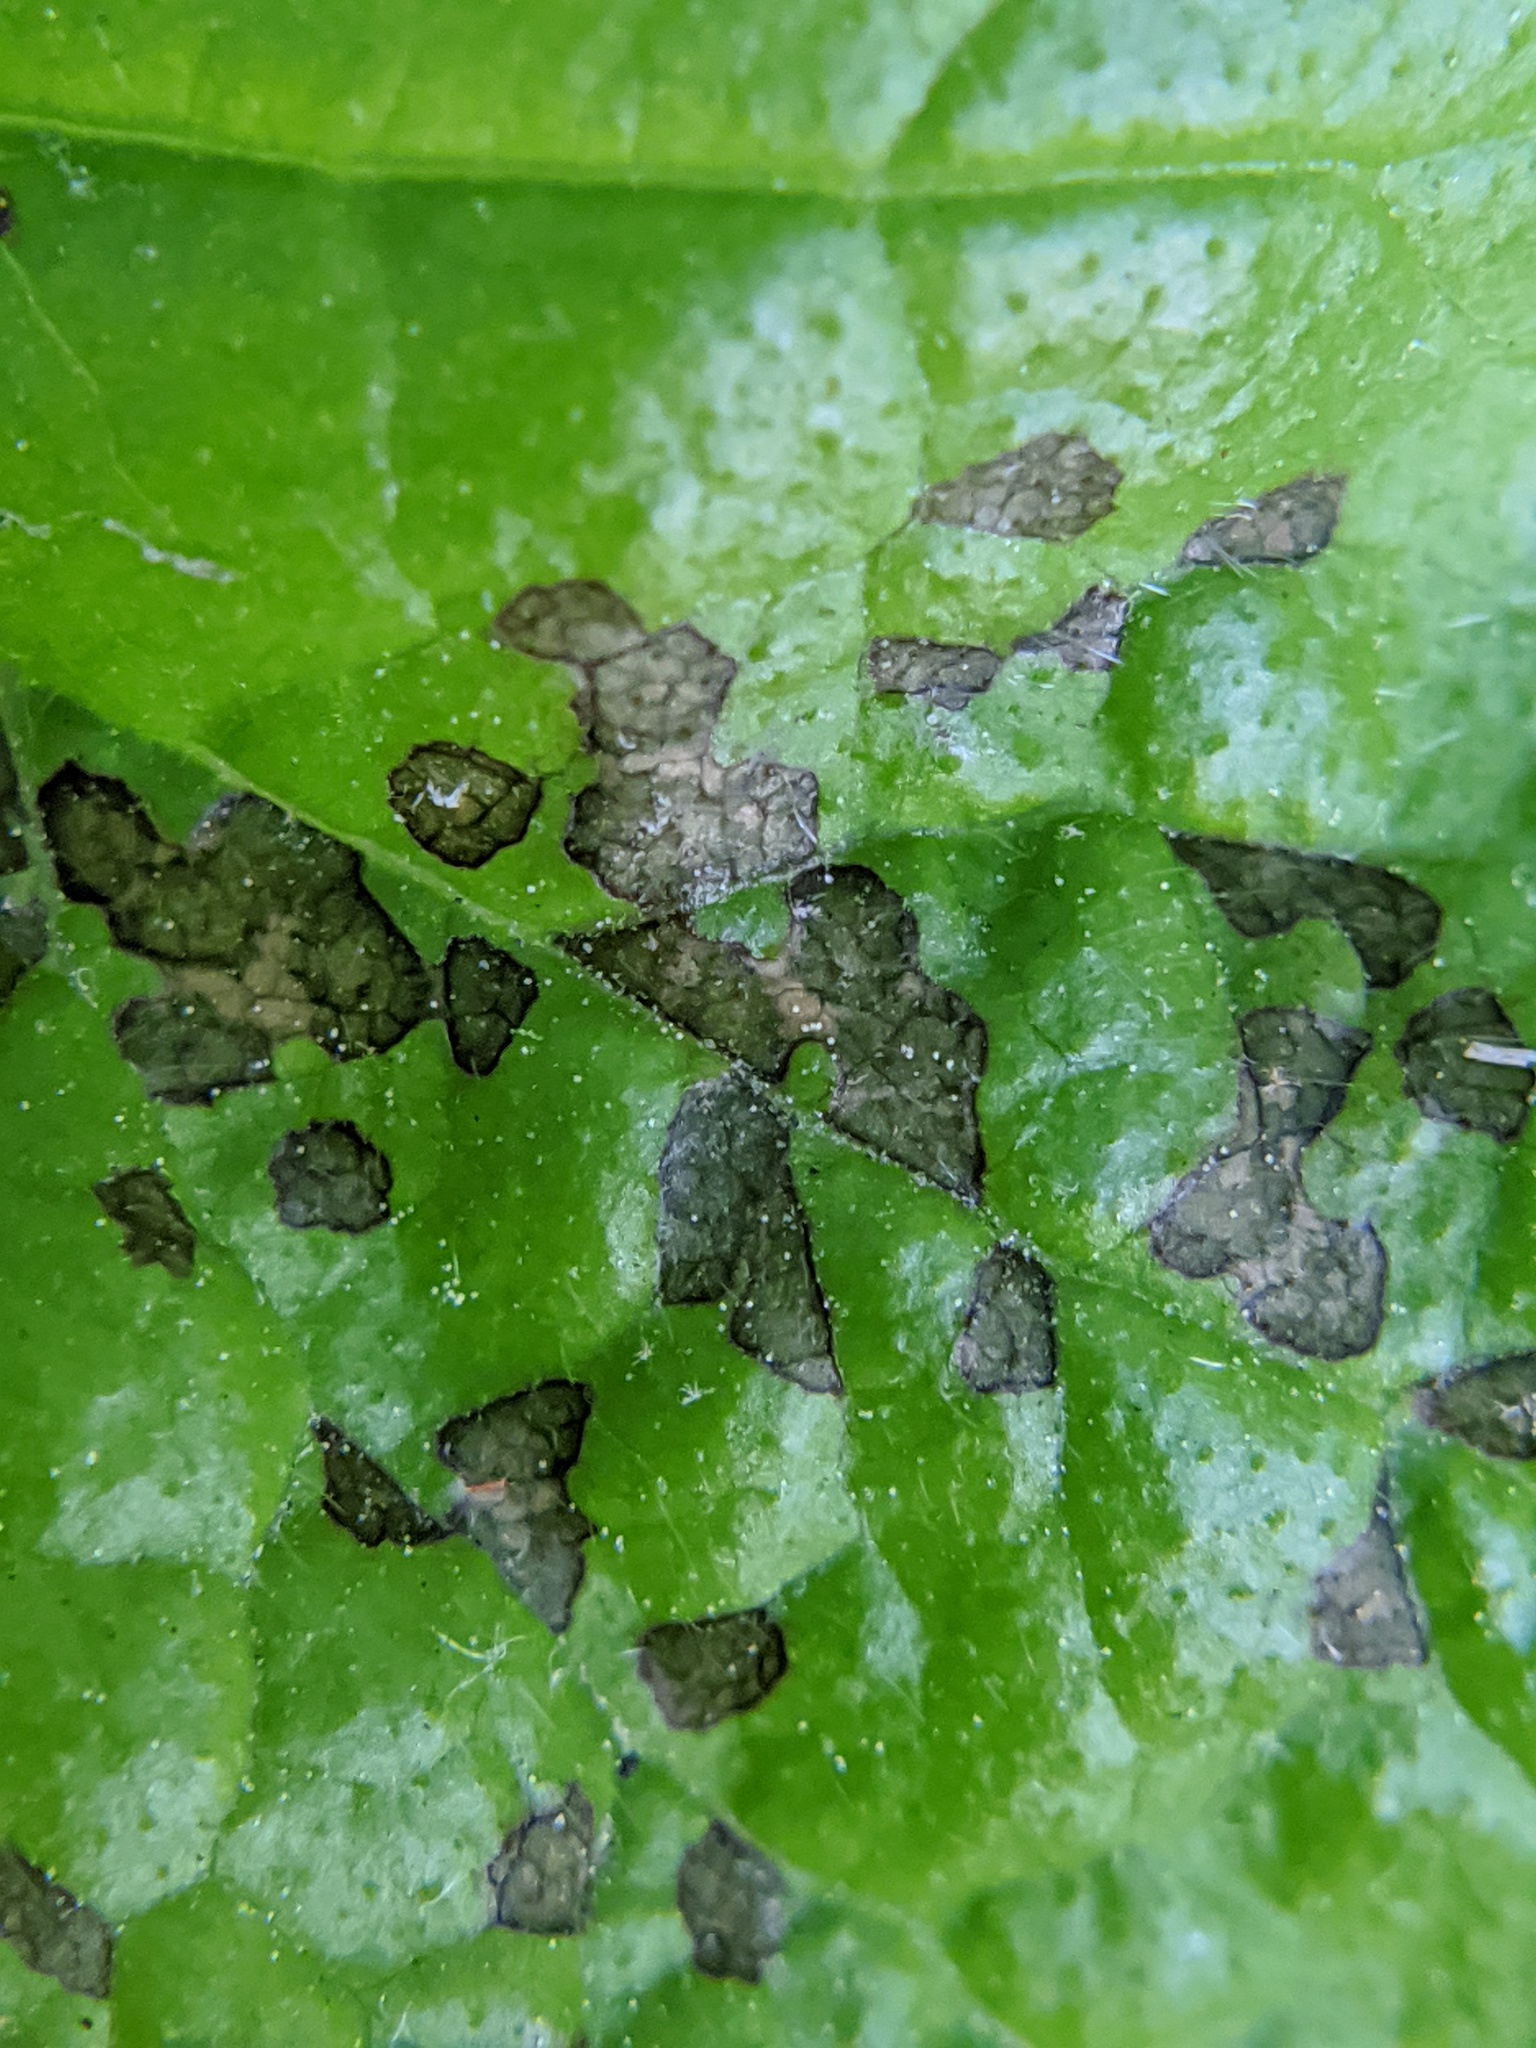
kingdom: Animalia
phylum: Arthropoda
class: Insecta
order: Hemiptera
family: Miridae
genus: Poecilocapsus
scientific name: Poecilocapsus lineatus
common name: Four-lined plant bug
